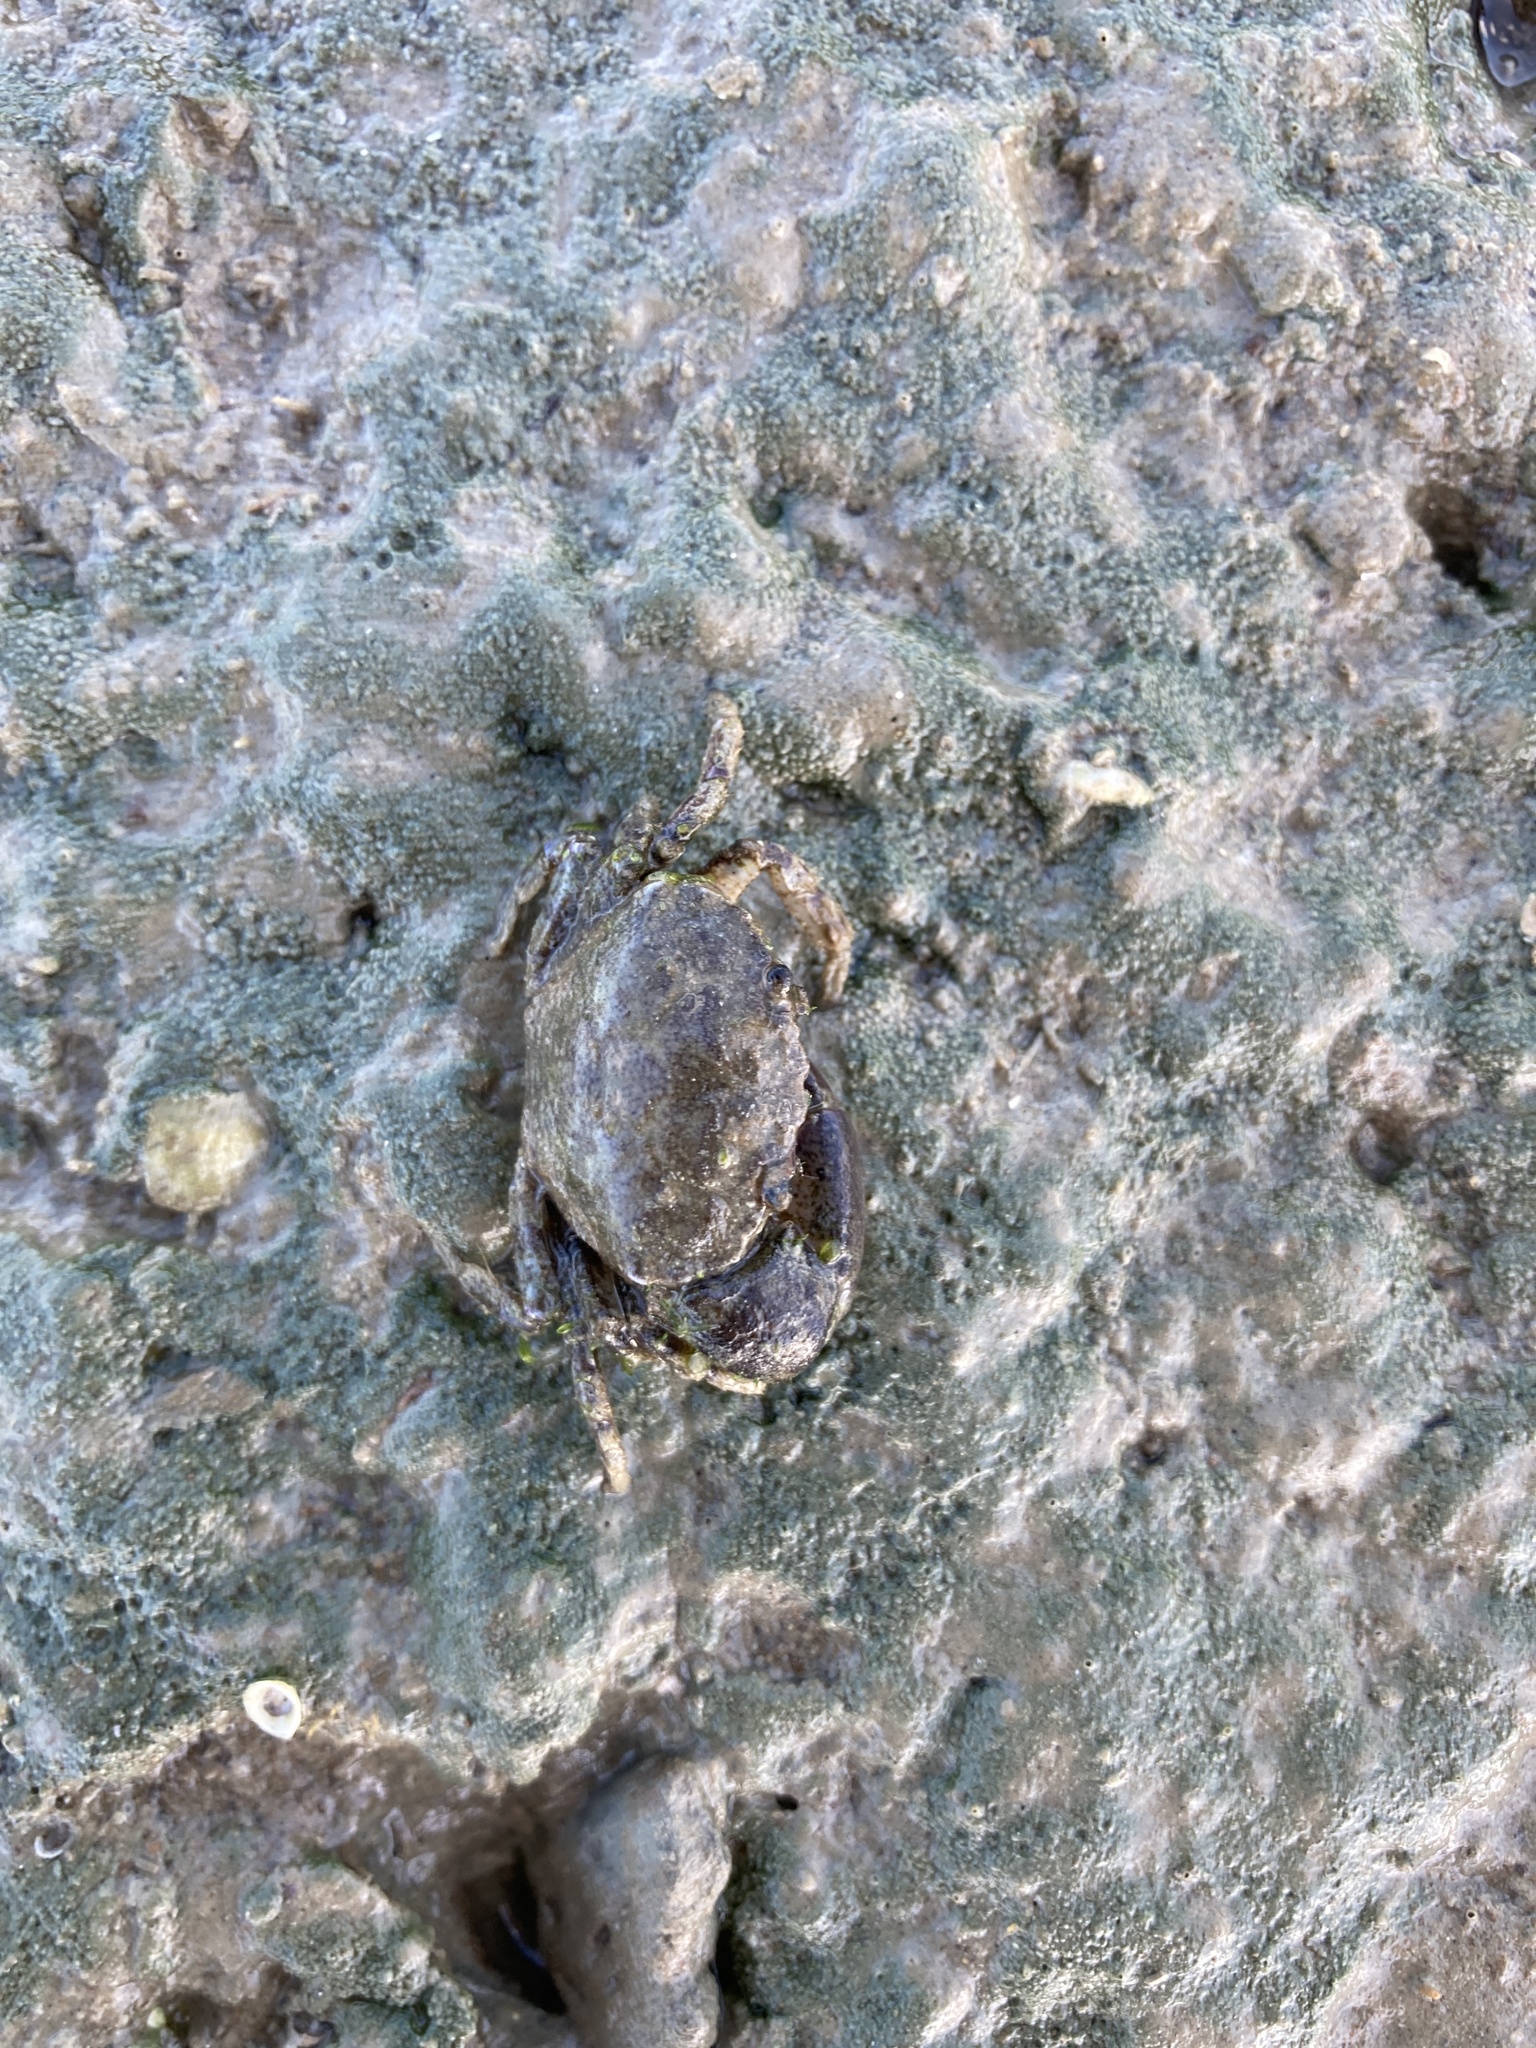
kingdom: Animalia
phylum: Arthropoda
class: Malacostraca
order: Decapoda
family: Pilumnidae
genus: Pilumnopeus
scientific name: Pilumnopeus serratifrons
